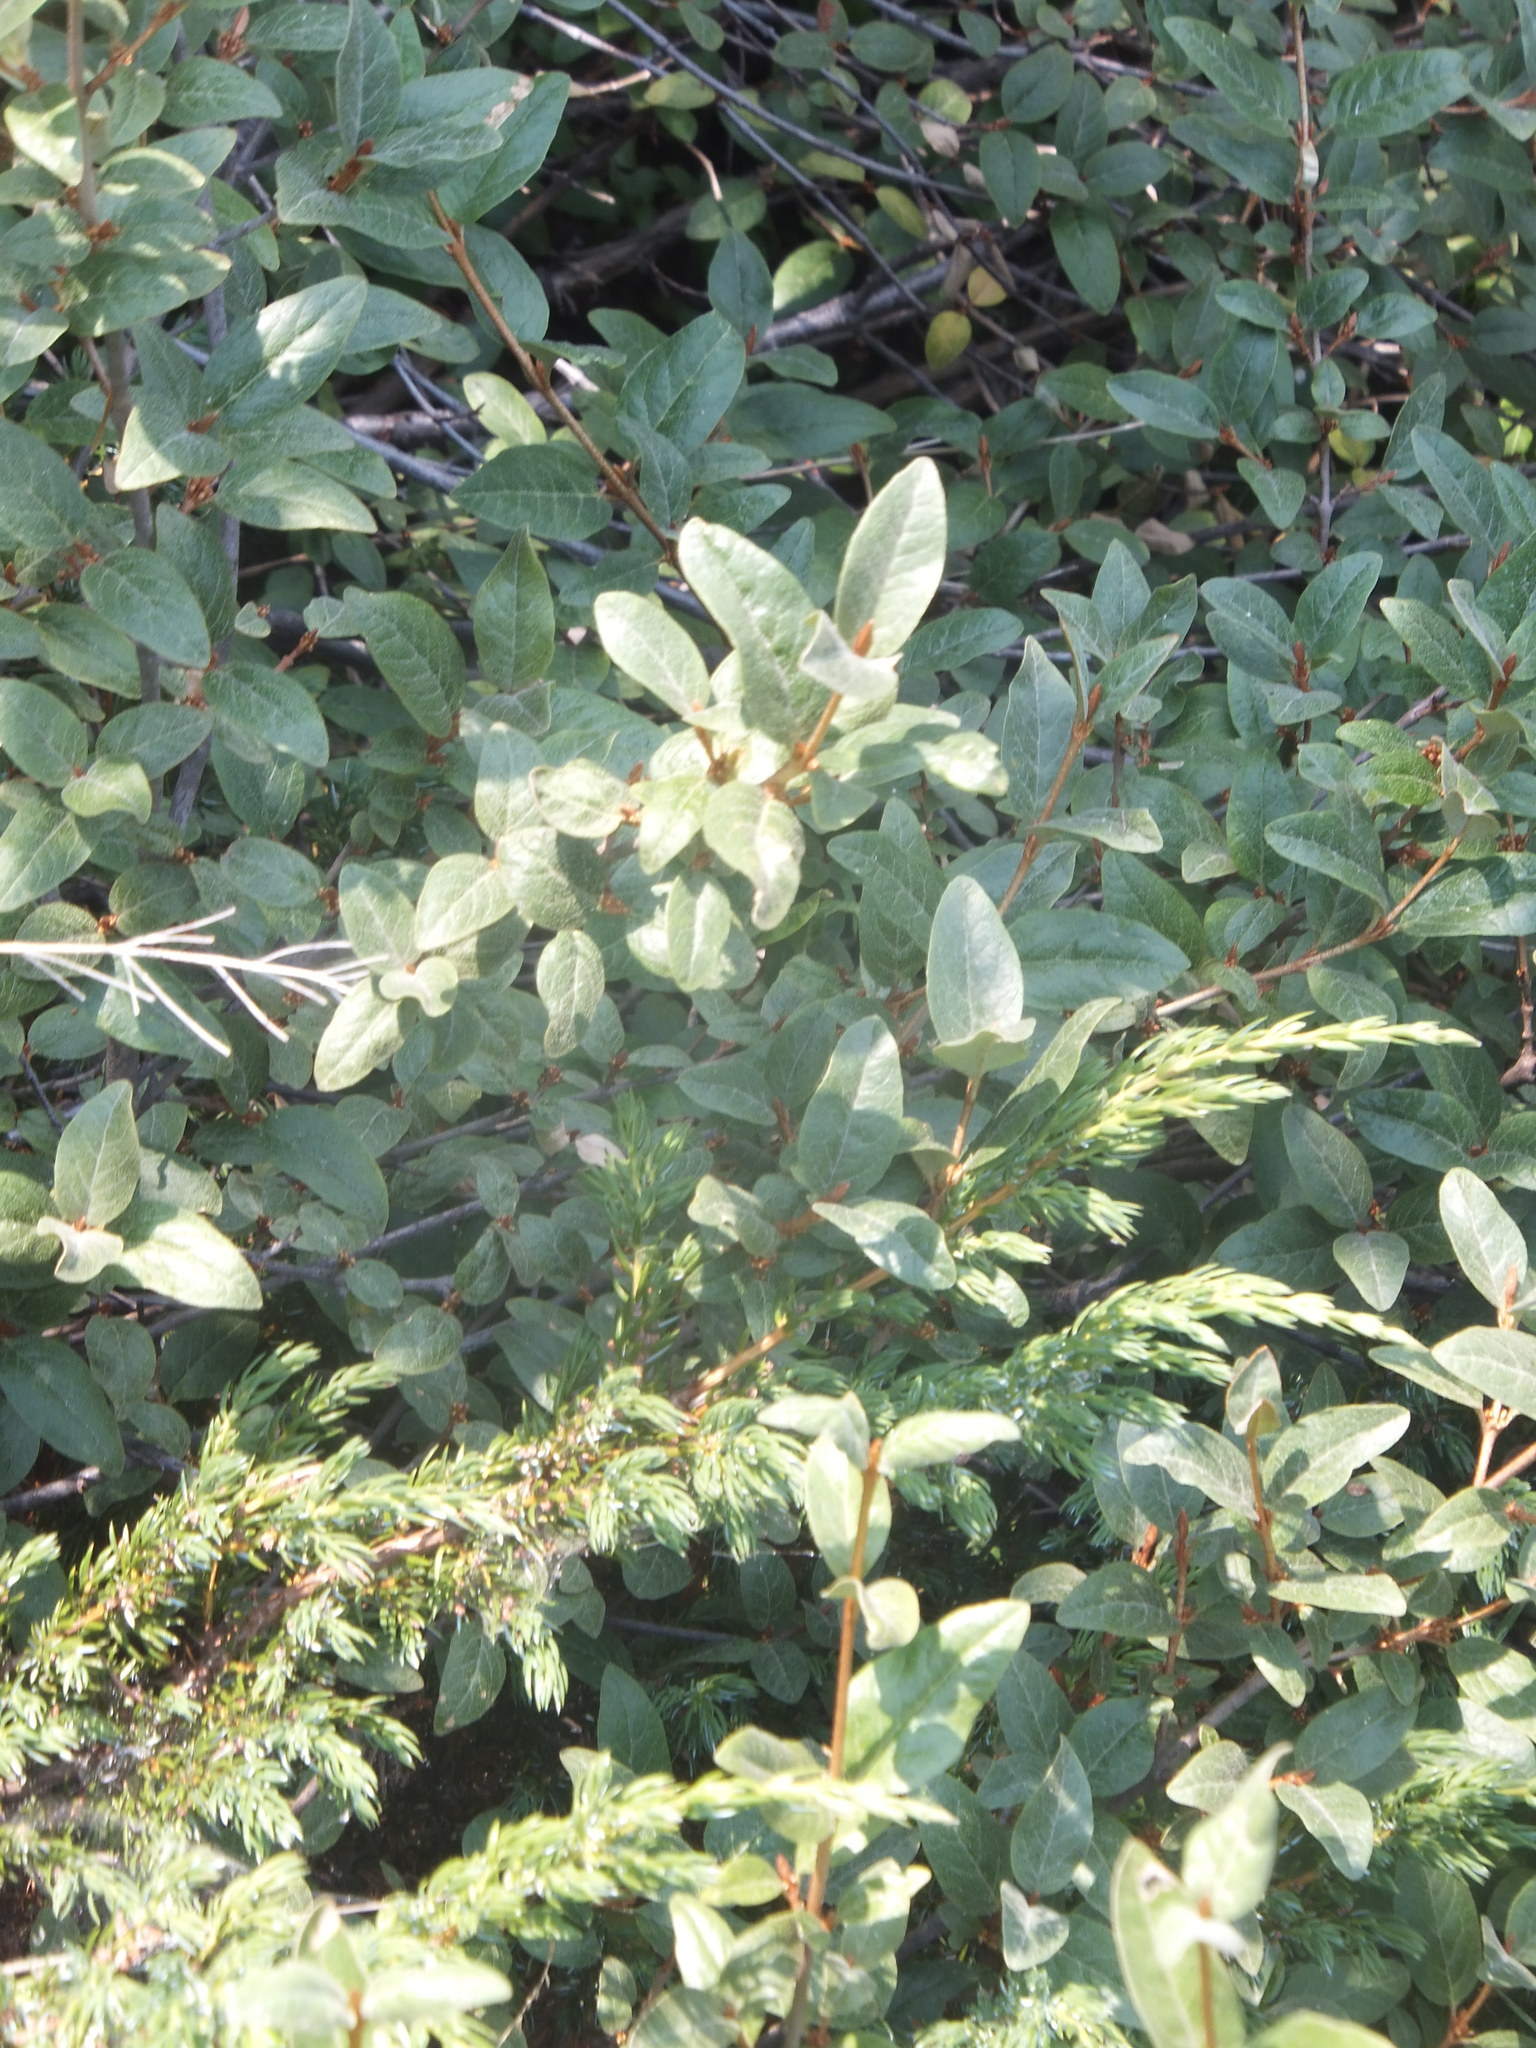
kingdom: Plantae
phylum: Tracheophyta
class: Magnoliopsida
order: Rosales
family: Elaeagnaceae
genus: Shepherdia
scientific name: Shepherdia canadensis
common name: Soapberry
